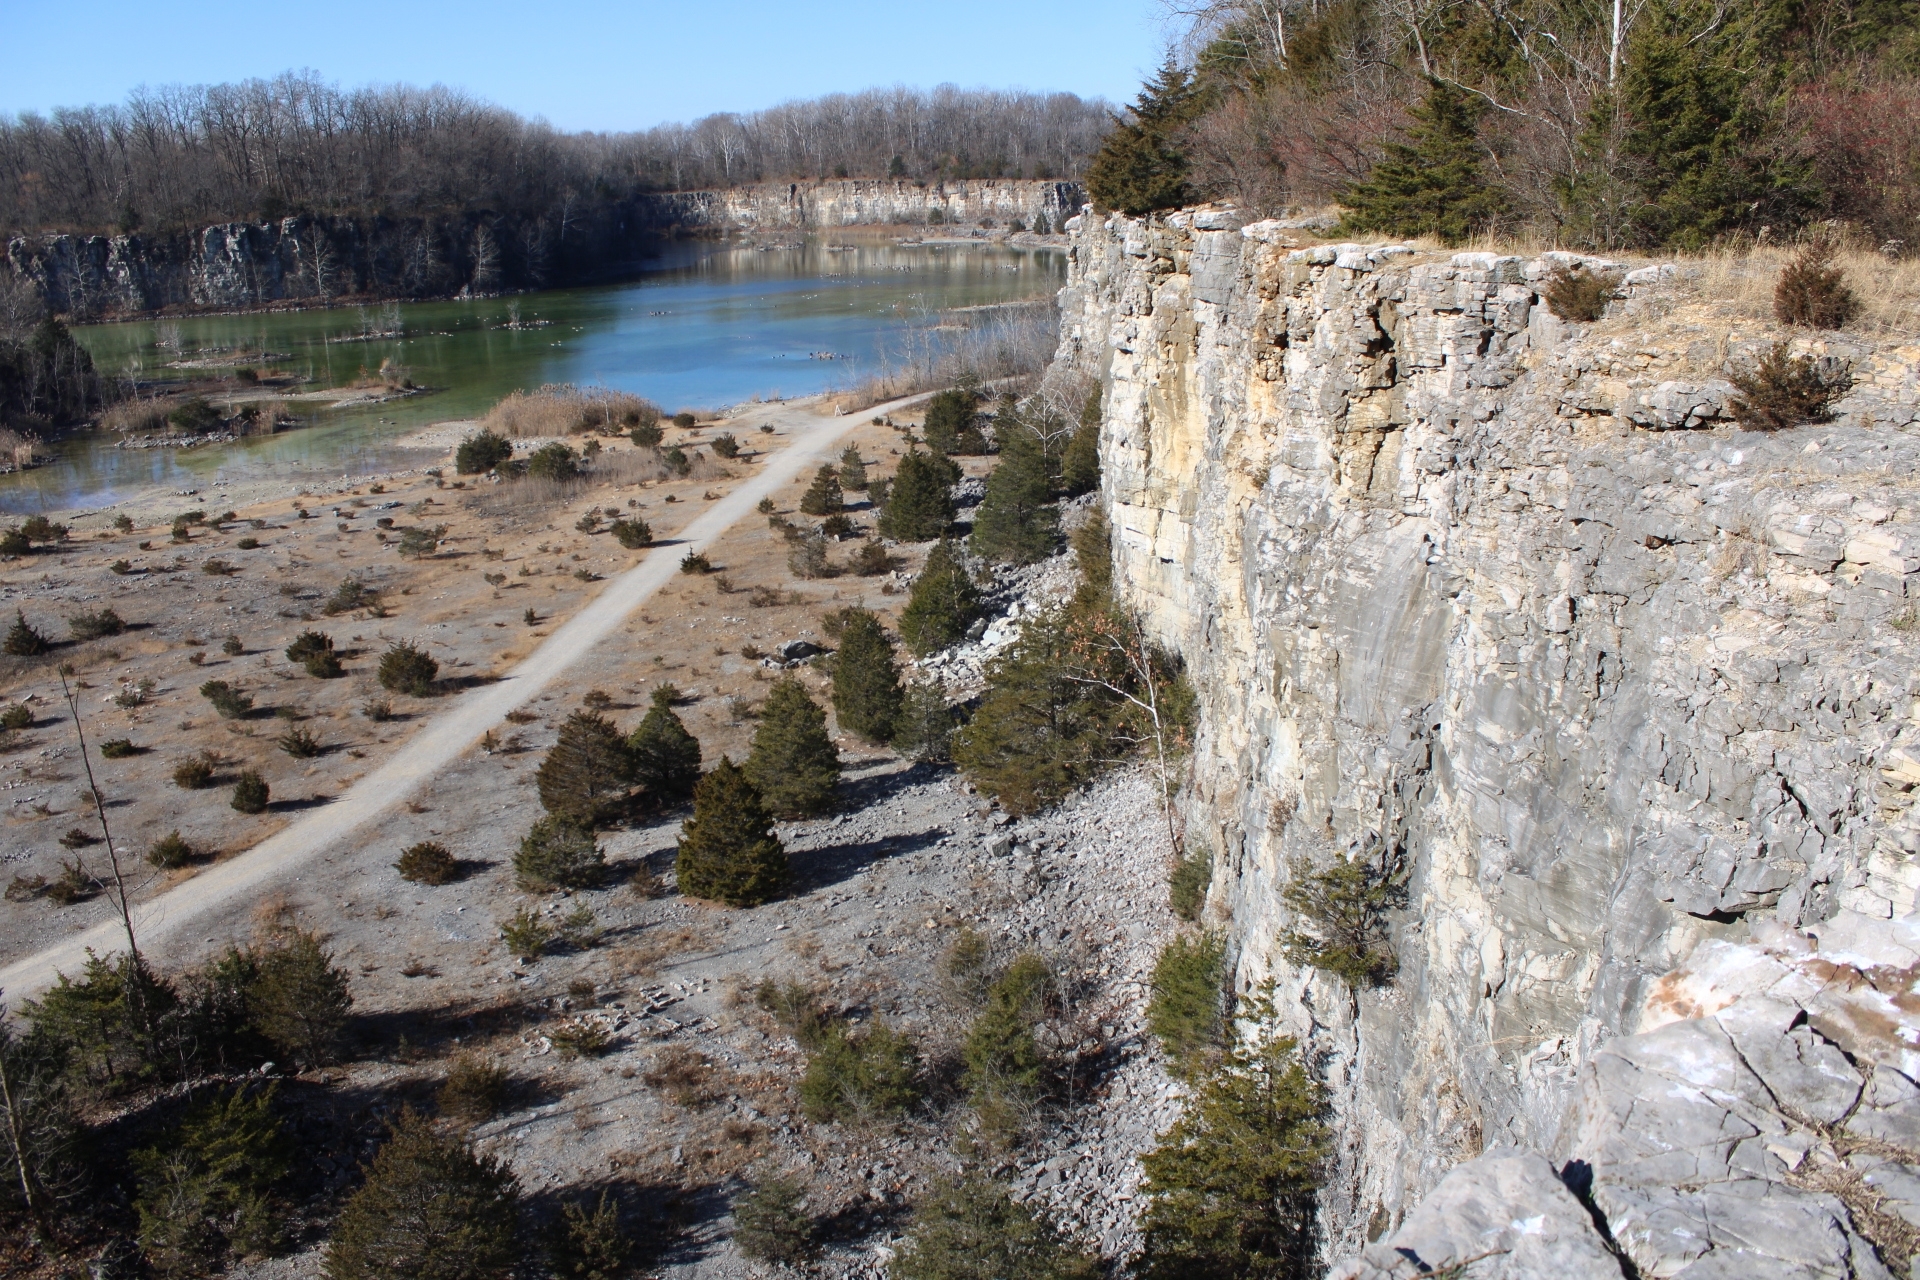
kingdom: Plantae
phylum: Tracheophyta
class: Pinopsida
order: Pinales
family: Cupressaceae
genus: Juniperus
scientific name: Juniperus virginiana
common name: Red juniper
